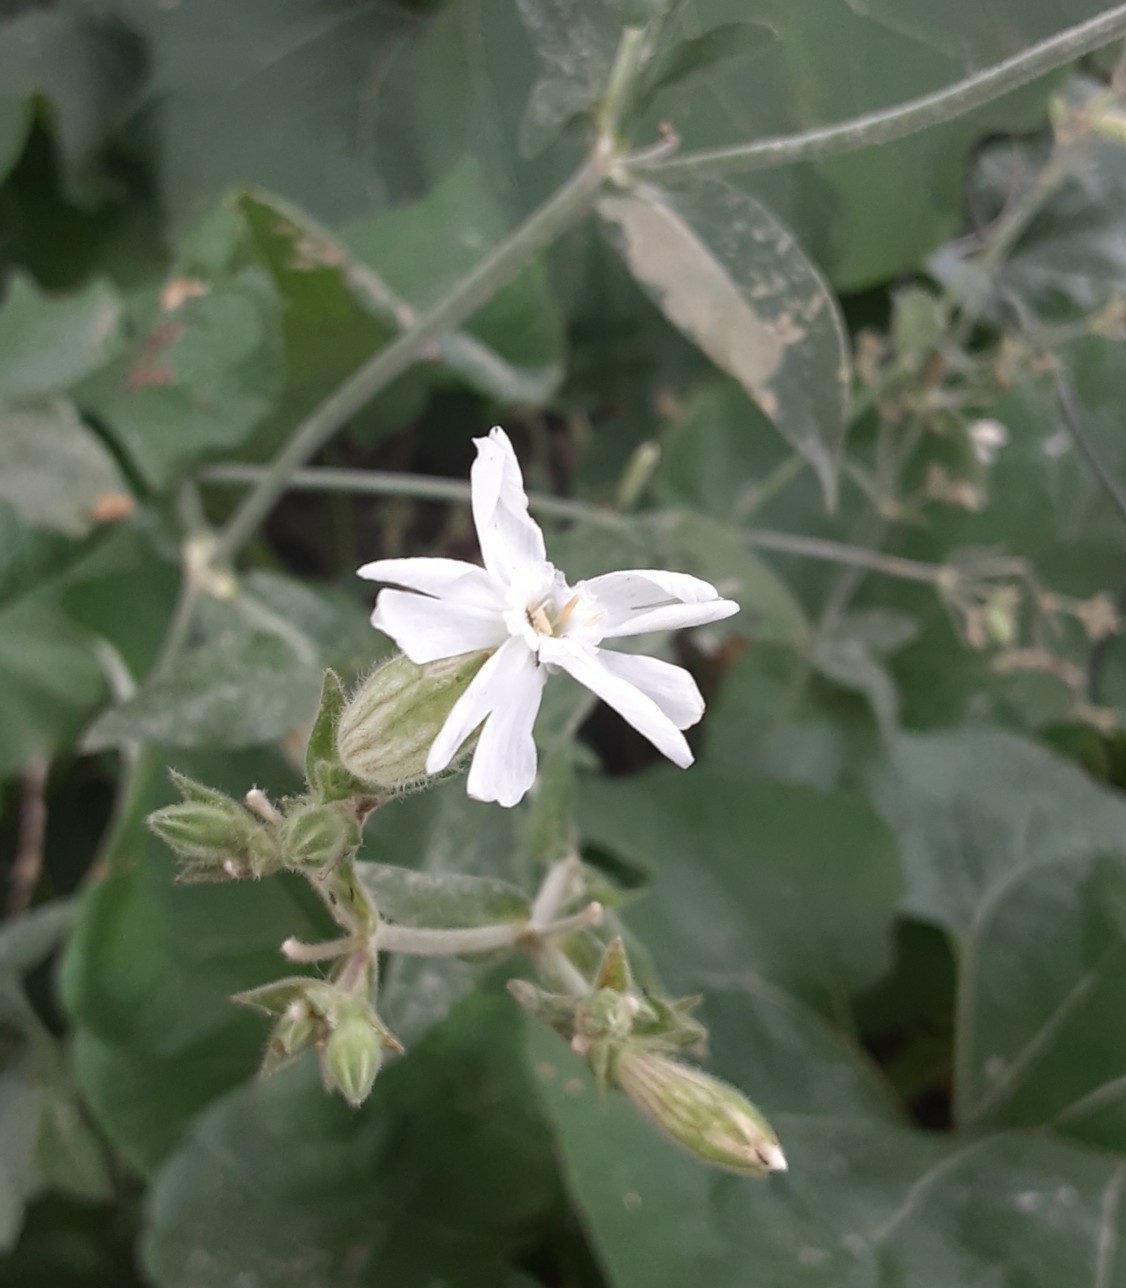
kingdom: Plantae
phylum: Tracheophyta
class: Magnoliopsida
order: Caryophyllales
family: Caryophyllaceae
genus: Silene
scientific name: Silene latifolia
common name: White campion
